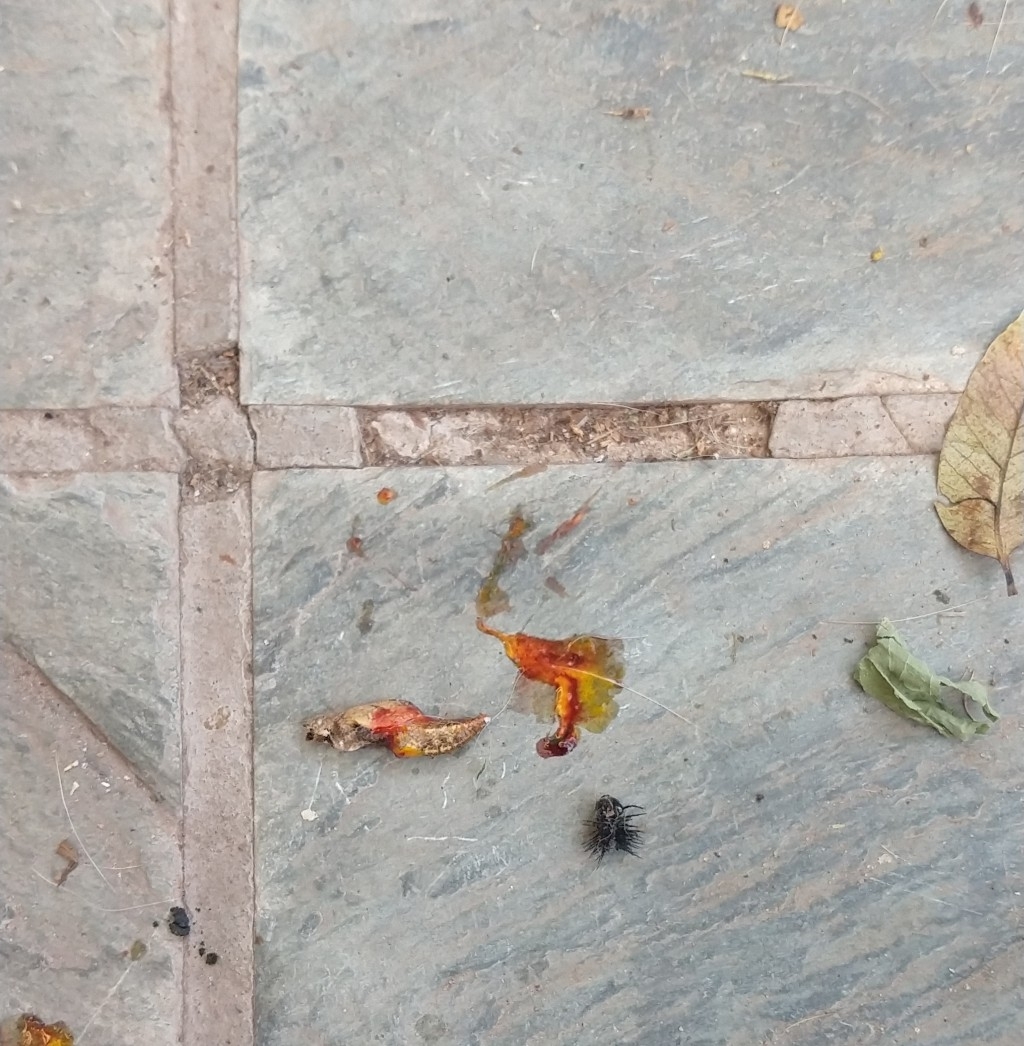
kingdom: Animalia
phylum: Arthropoda
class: Insecta
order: Lepidoptera
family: Nymphalidae
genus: Dione
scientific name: Dione vanillae
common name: Gulf fritillary
